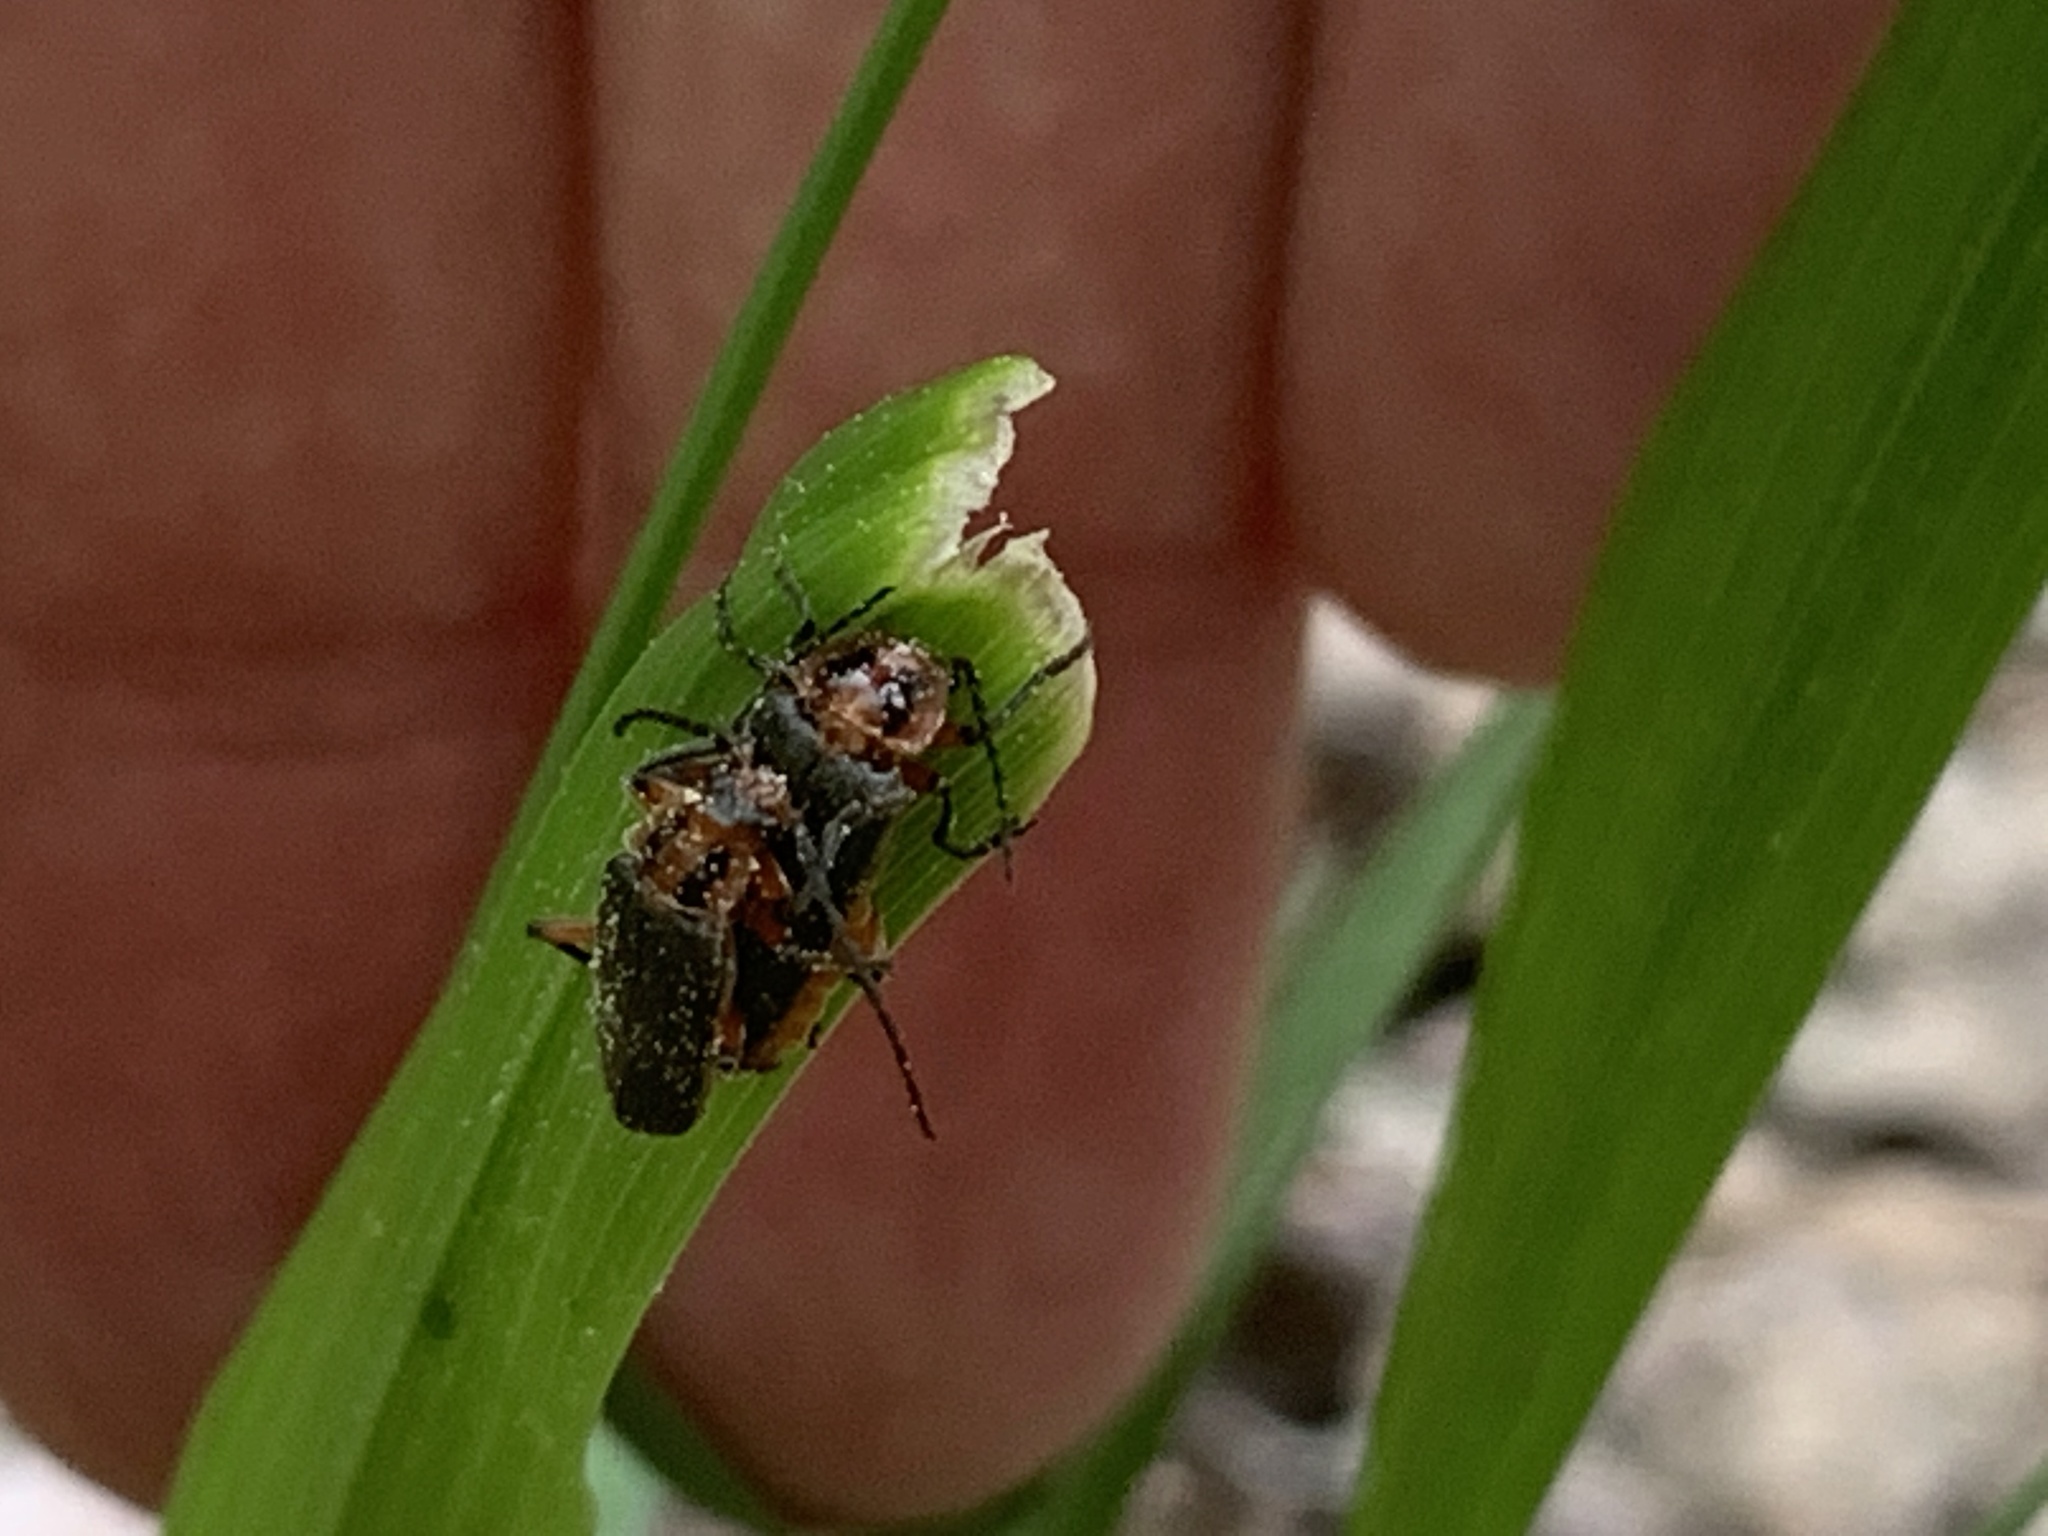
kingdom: Animalia
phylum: Arthropoda
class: Insecta
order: Coleoptera
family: Cantharidae
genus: Atalantycha
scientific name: Atalantycha bilineata
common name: Two-lined leatherwing
